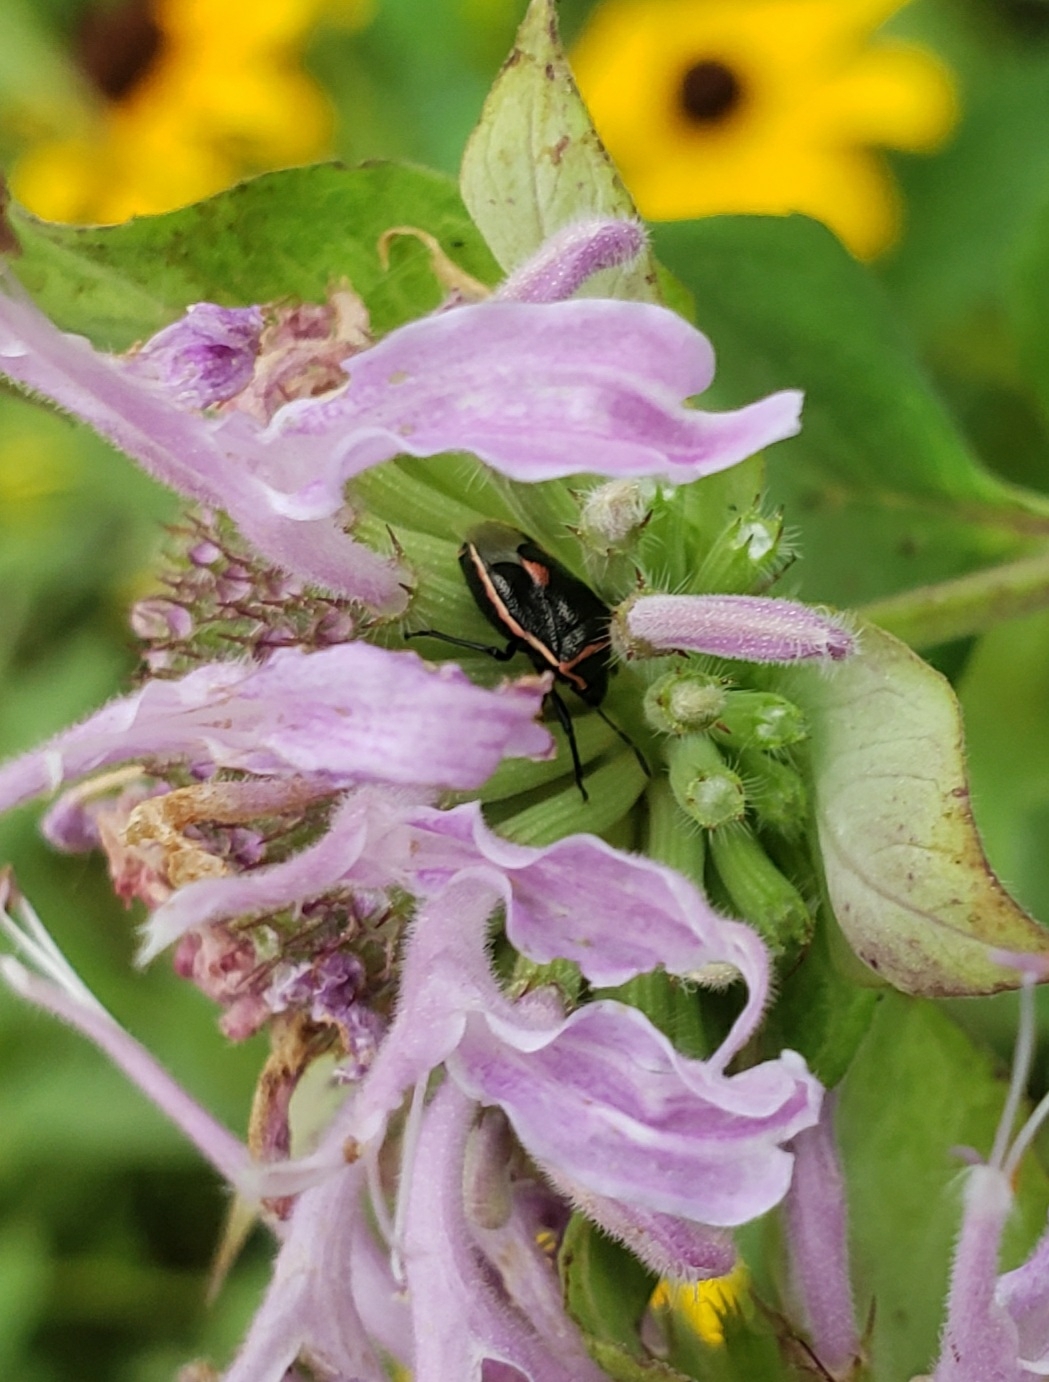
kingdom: Animalia
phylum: Arthropoda
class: Insecta
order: Hemiptera
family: Pentatomidae
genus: Cosmopepla
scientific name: Cosmopepla lintneriana
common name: Twice-stabbed stink bug
